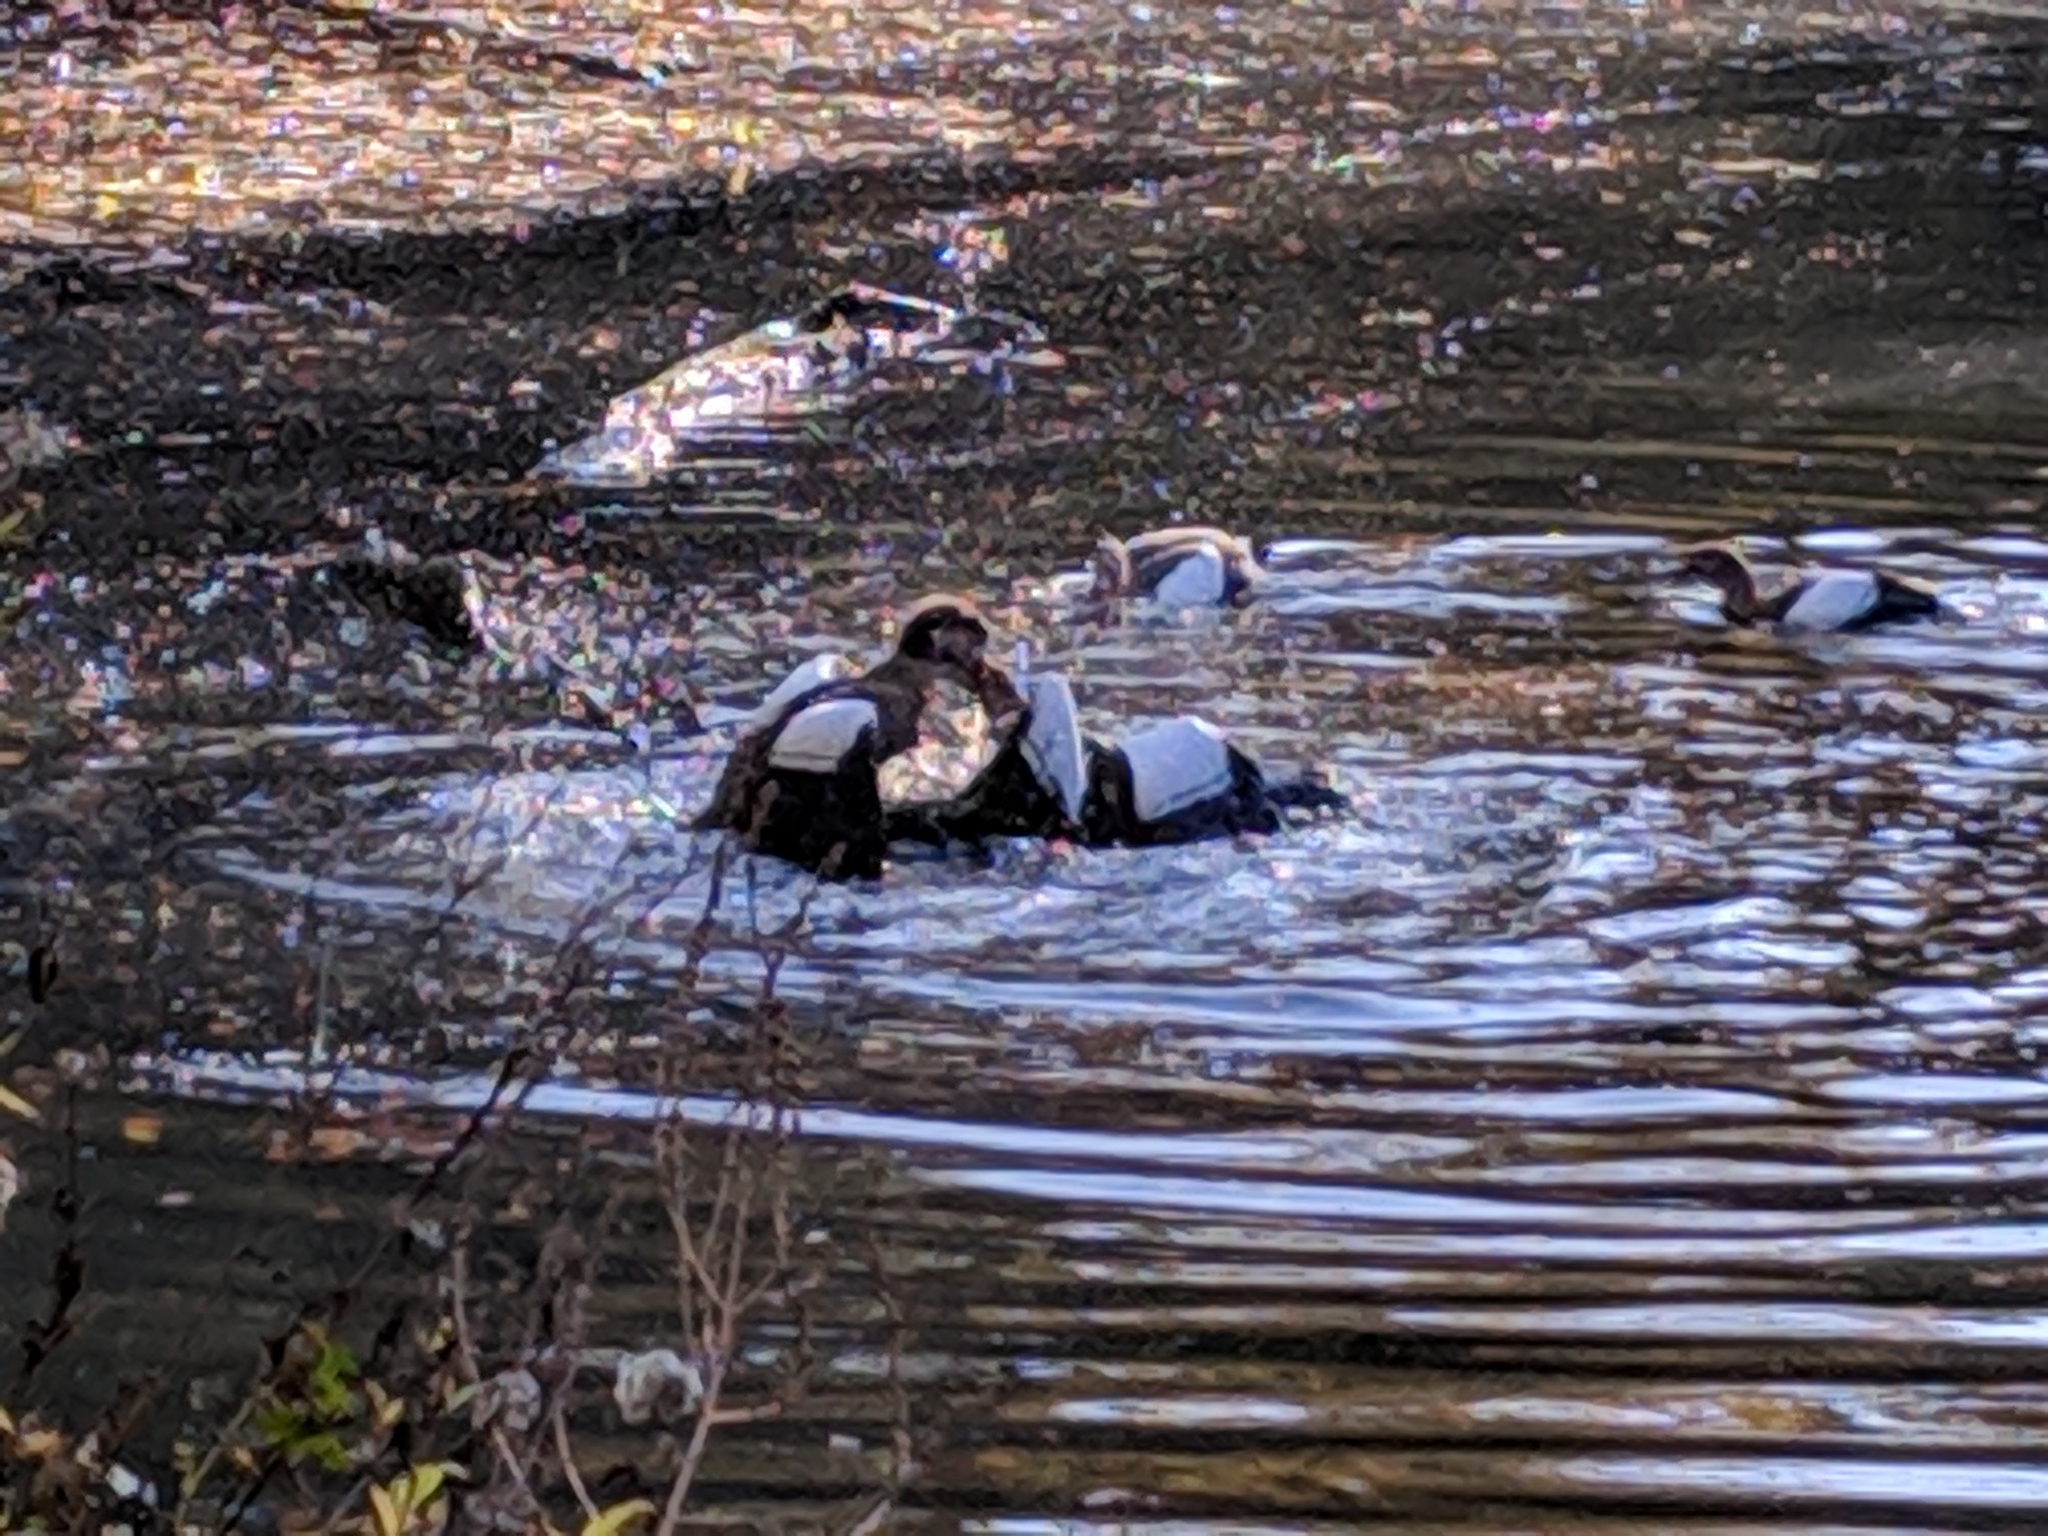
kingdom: Animalia
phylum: Chordata
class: Aves
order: Anseriformes
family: Anatidae
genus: Alopochen
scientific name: Alopochen aegyptiaca
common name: Egyptian goose
